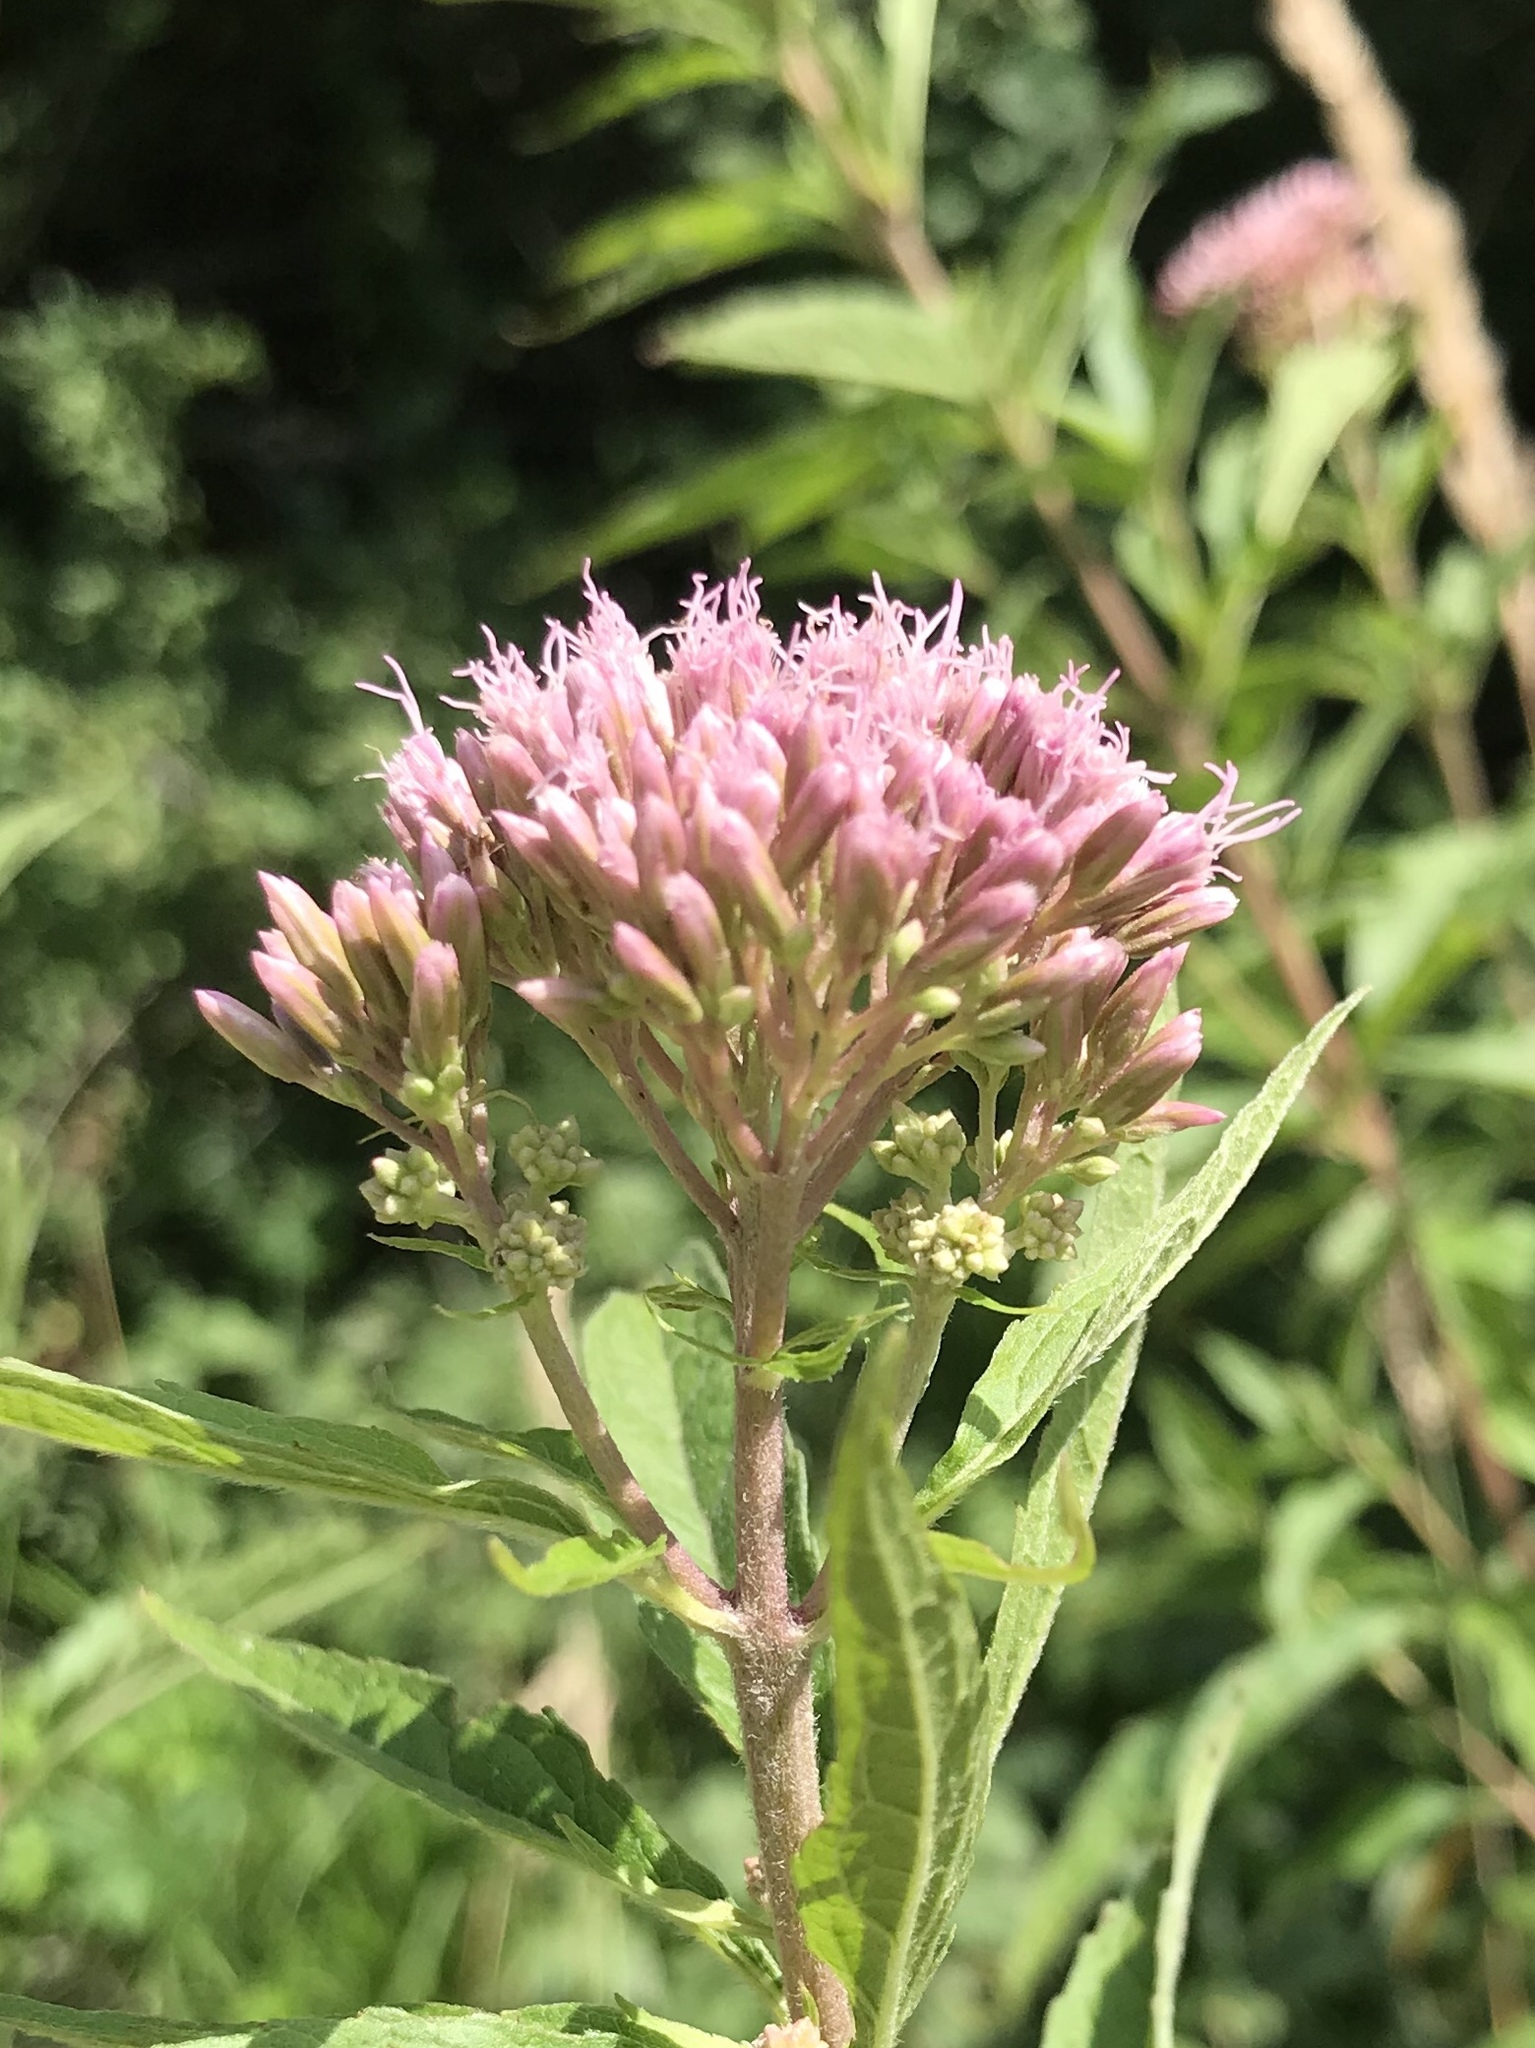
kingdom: Plantae
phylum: Tracheophyta
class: Magnoliopsida
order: Asterales
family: Asteraceae
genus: Eupatorium
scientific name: Eupatorium cannabinum
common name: Hemp-agrimony
